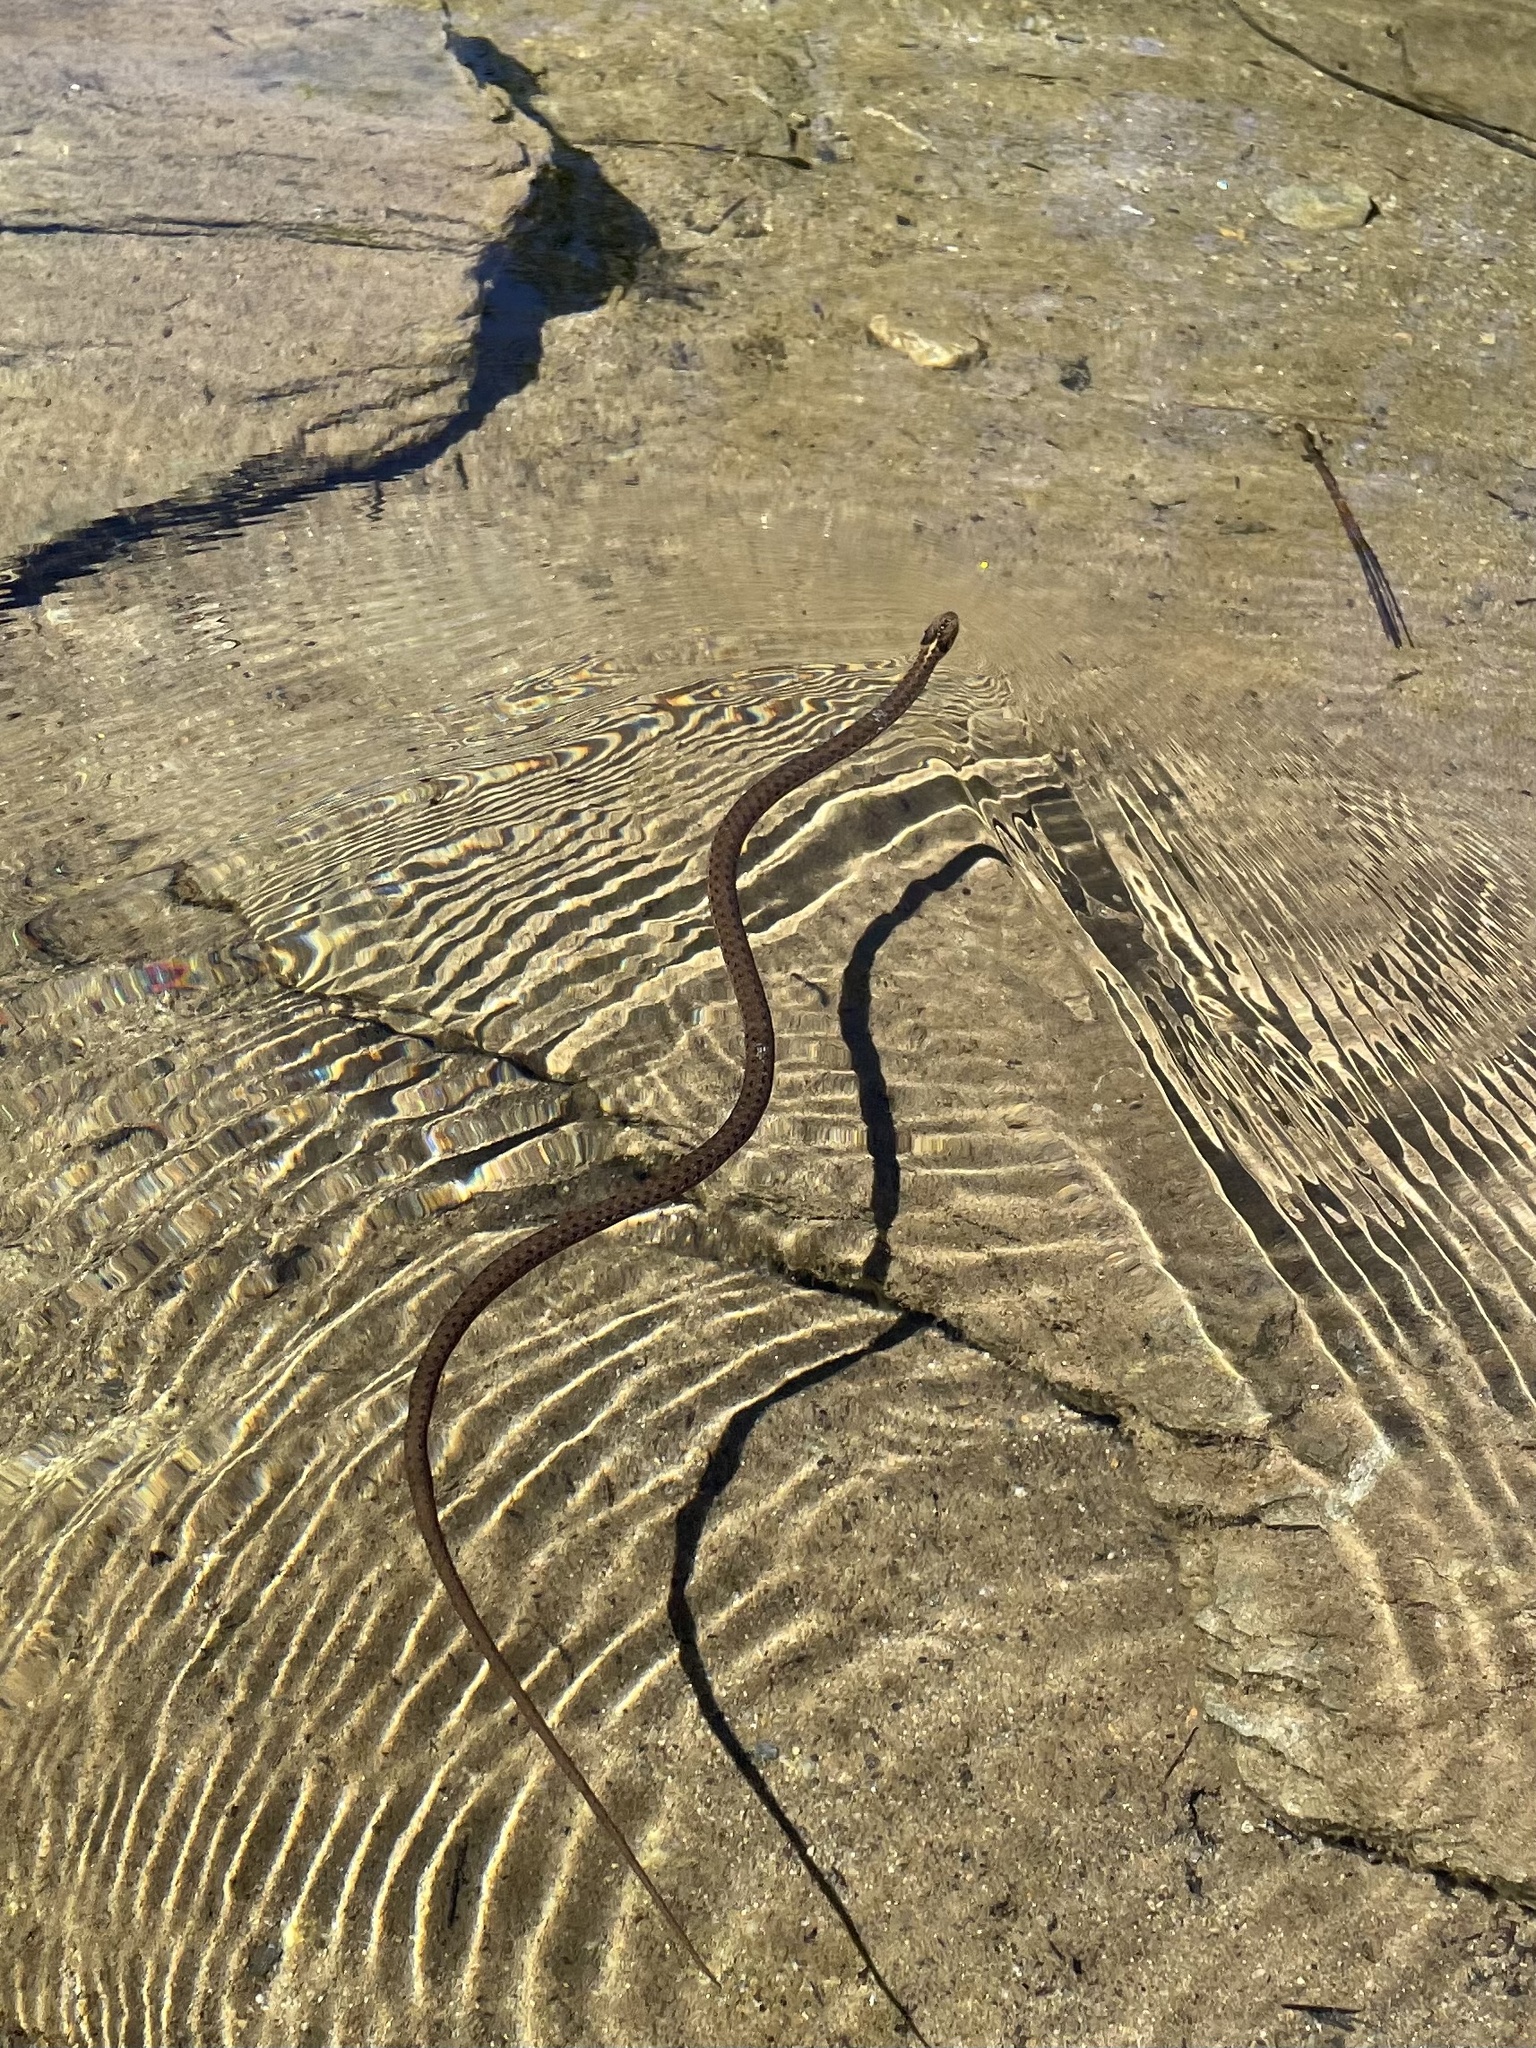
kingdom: Animalia
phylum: Chordata
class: Squamata
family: Colubridae
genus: Thamnophis
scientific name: Thamnophis couchii
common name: Western aquatic garter snake
